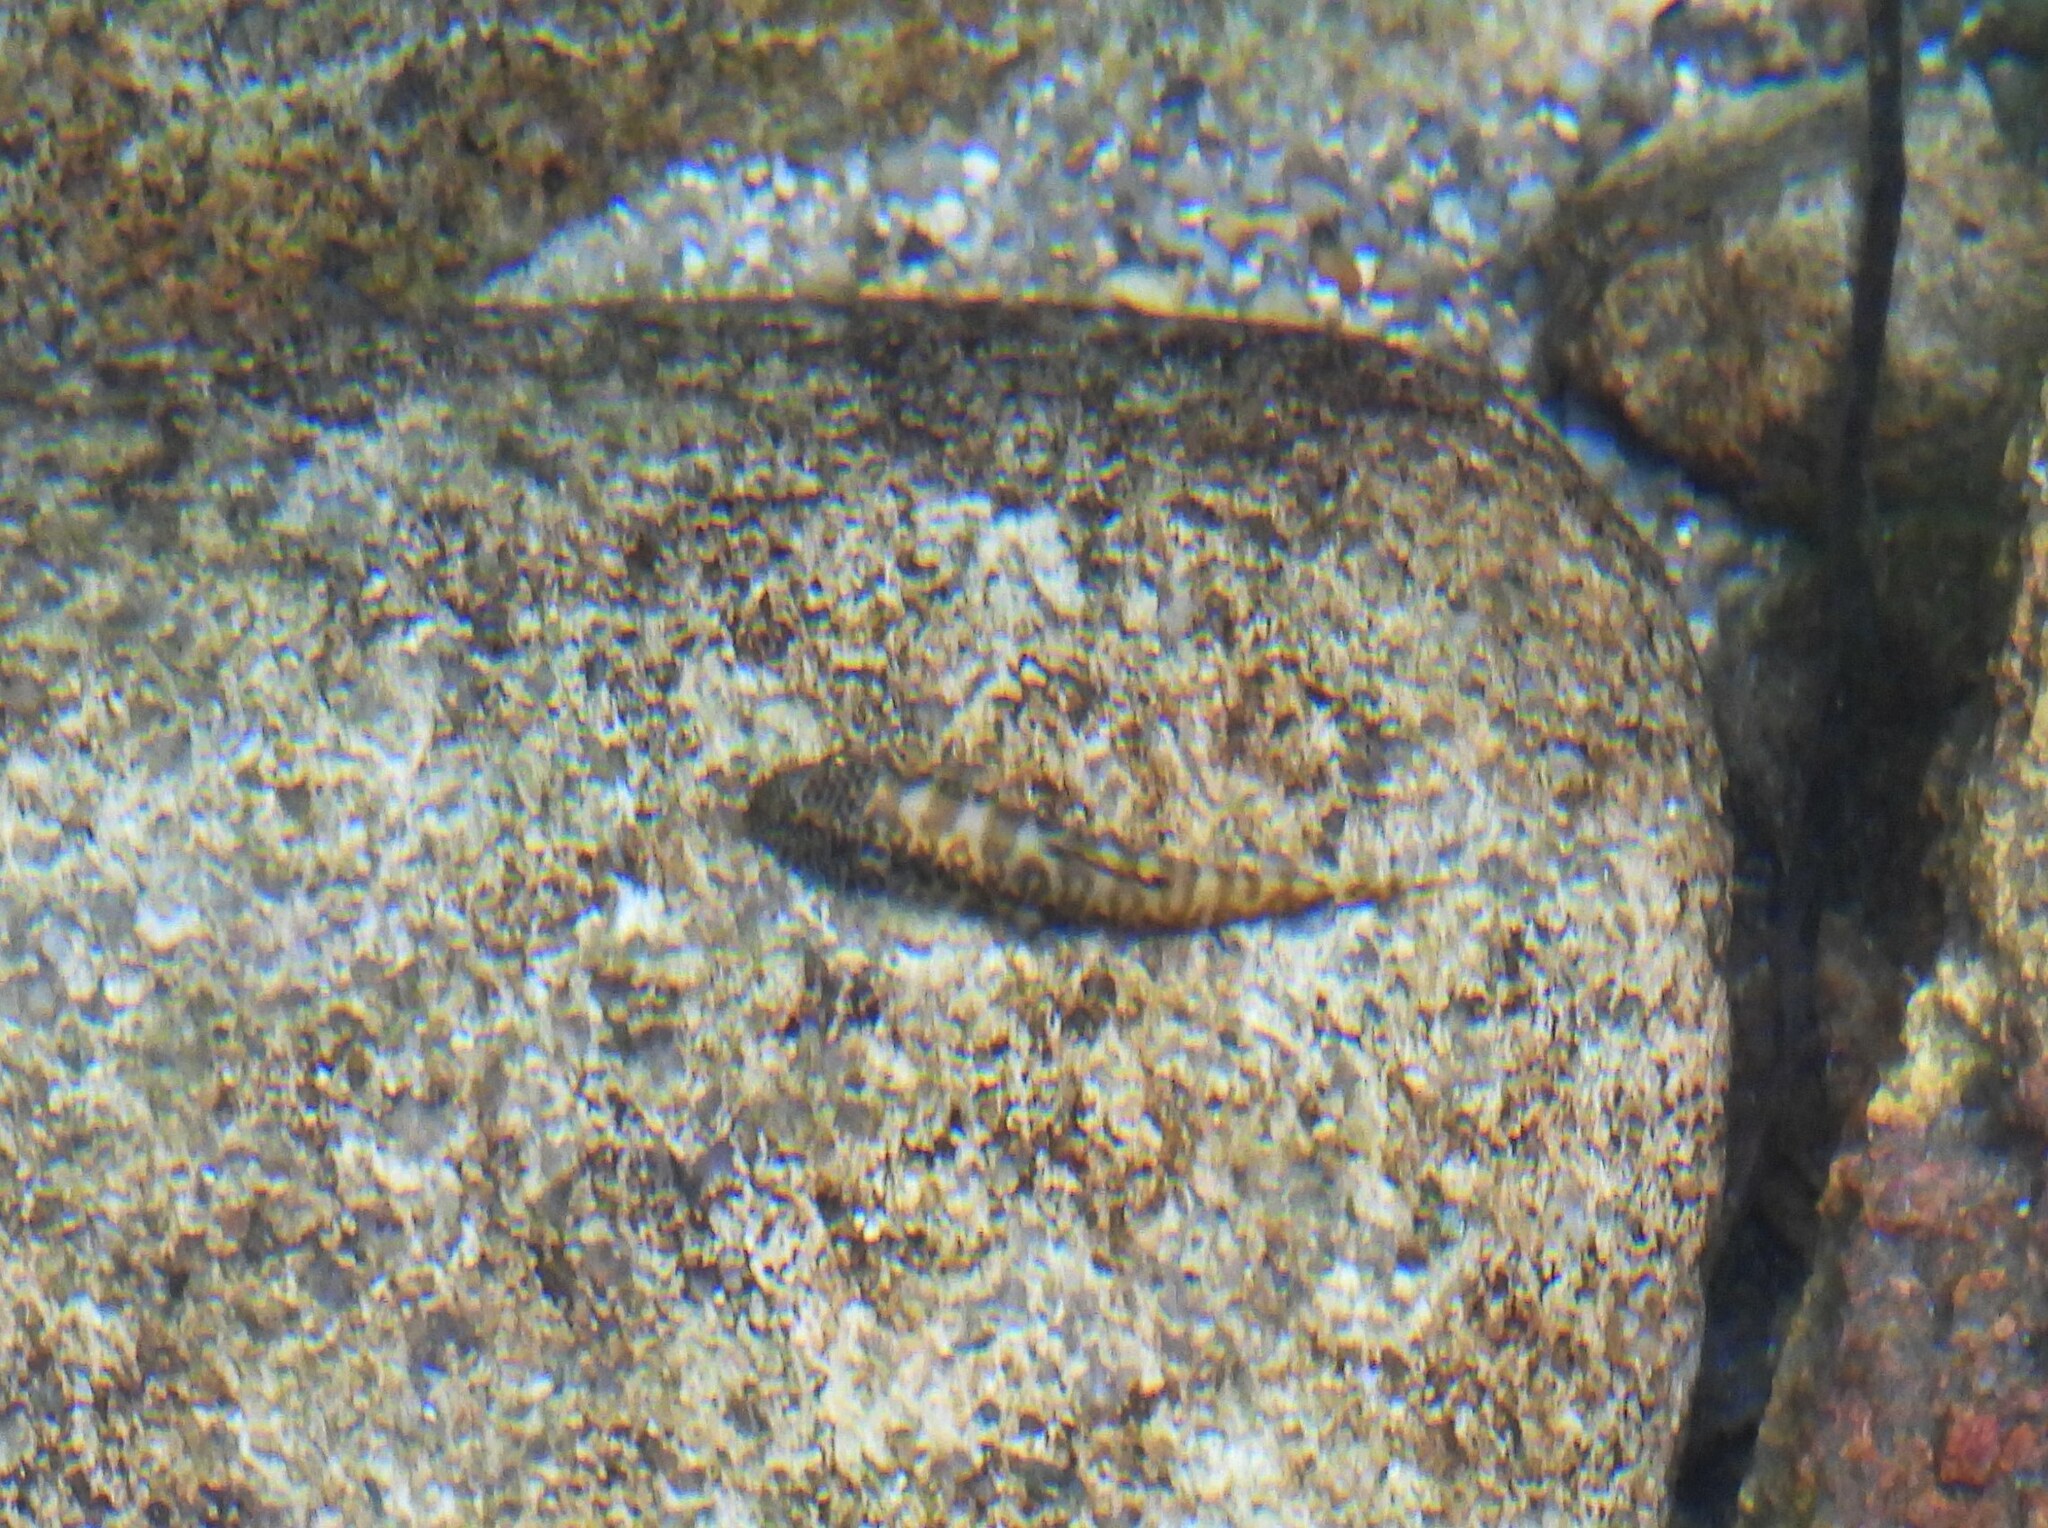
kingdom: Animalia
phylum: Chordata
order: Cypriniformes
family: Balitoridae
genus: Pseudogastromyzon
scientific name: Pseudogastromyzon myersi
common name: Sucker-belly loach
